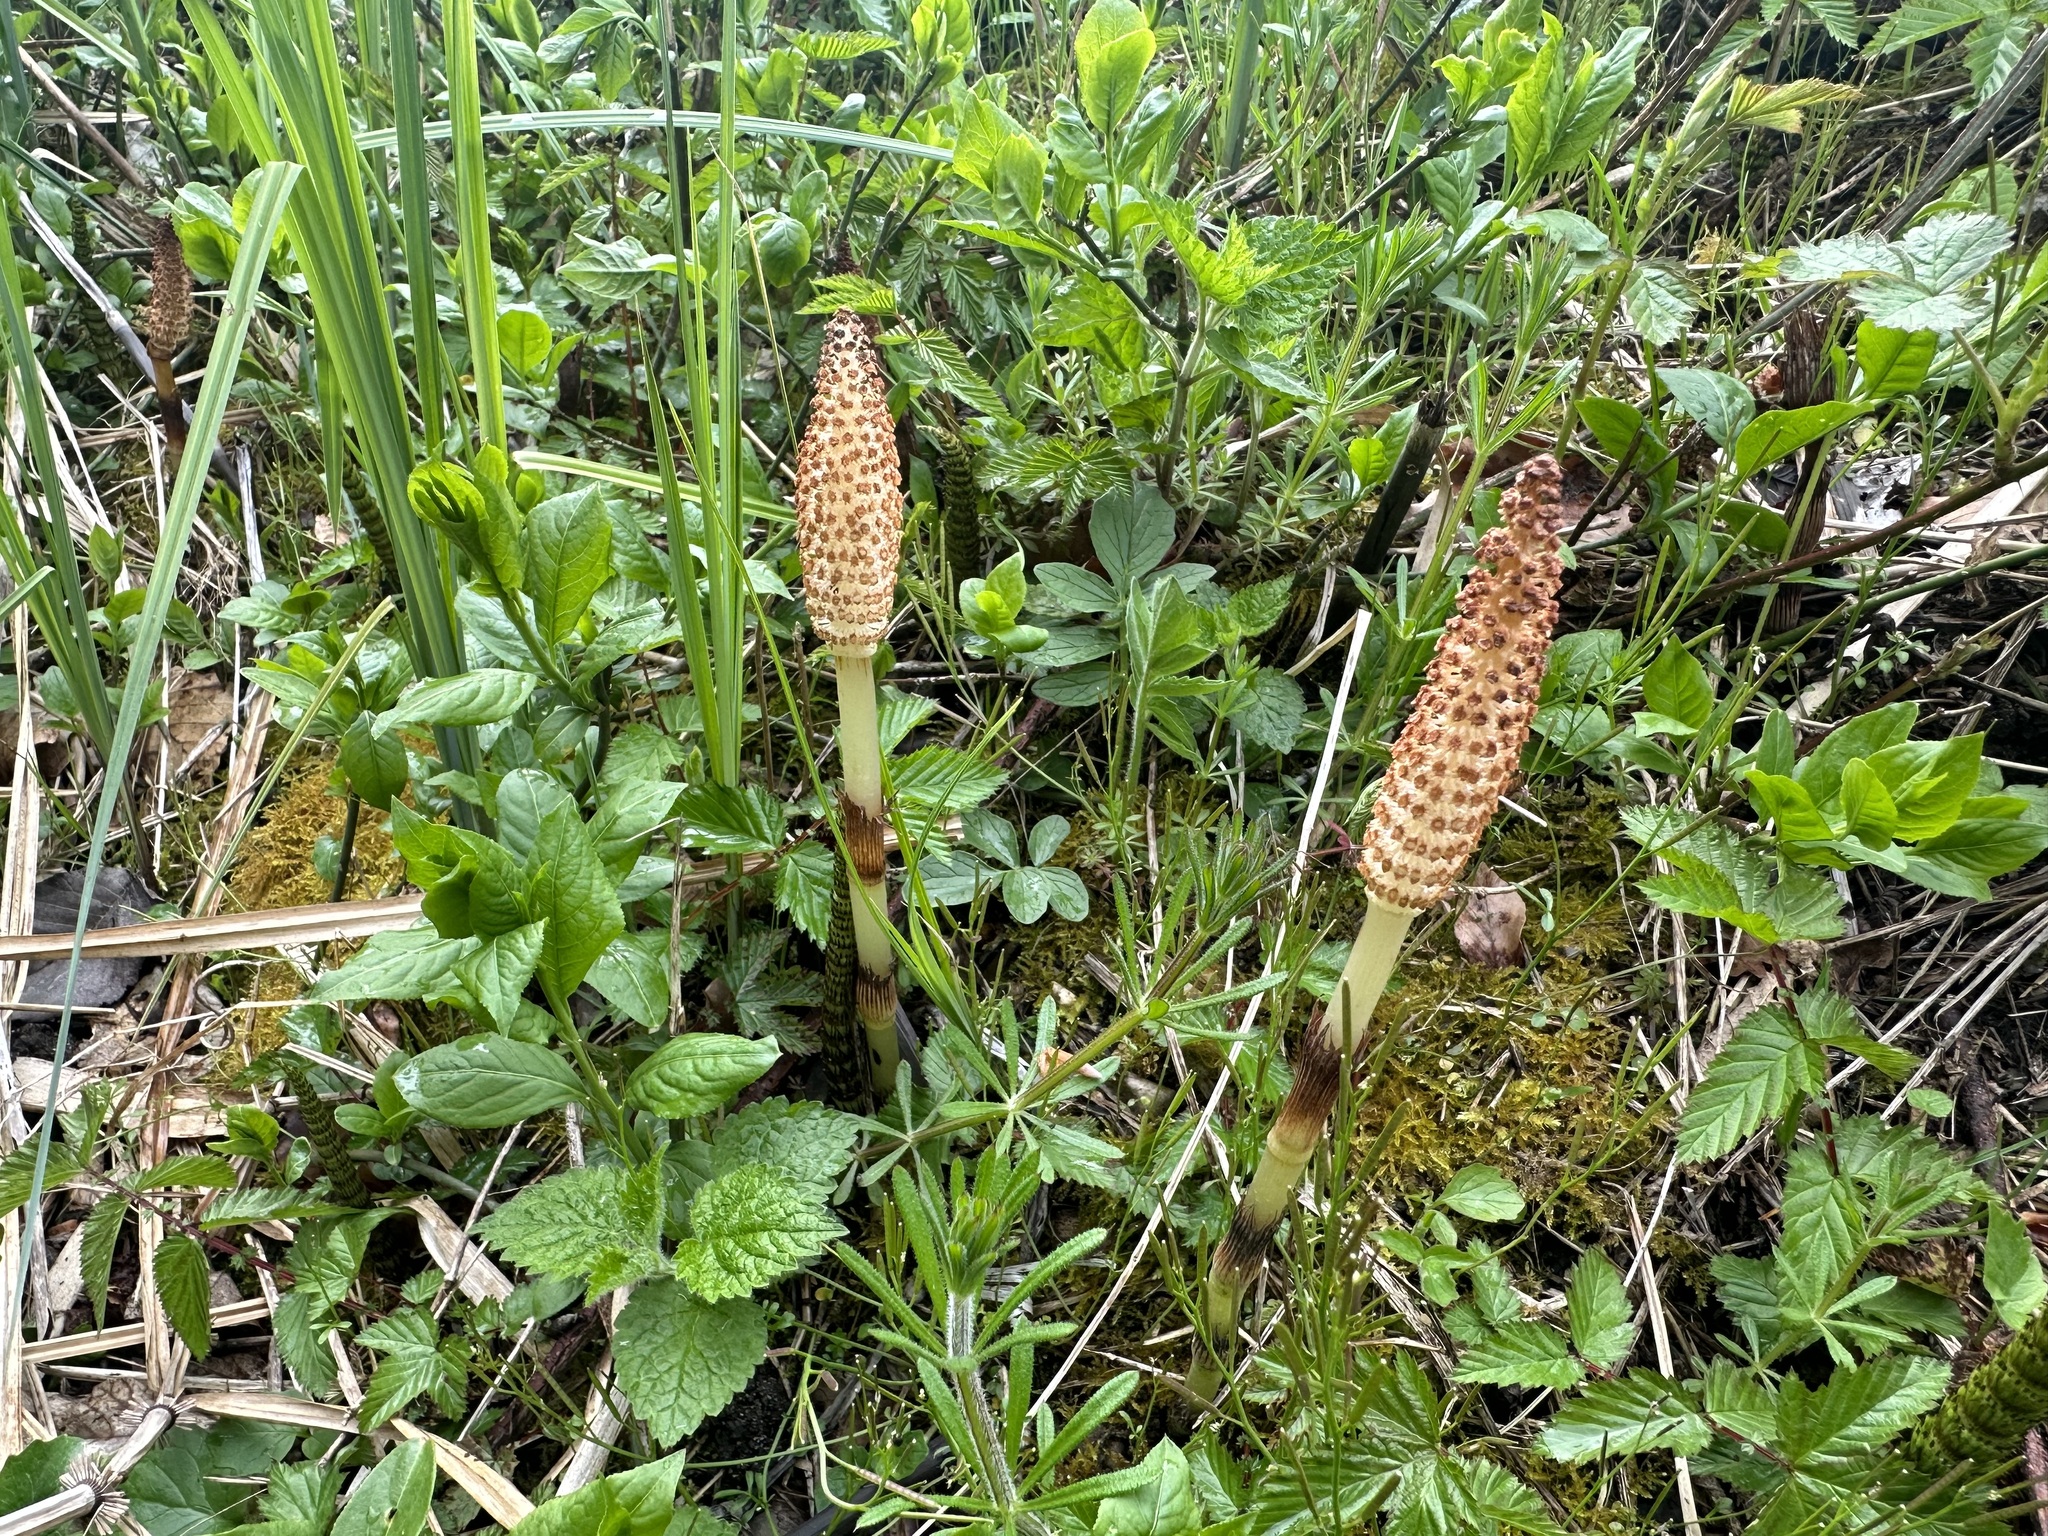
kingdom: Plantae
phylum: Tracheophyta
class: Polypodiopsida
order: Equisetales
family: Equisetaceae
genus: Equisetum
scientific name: Equisetum telmateia
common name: Great horsetail
